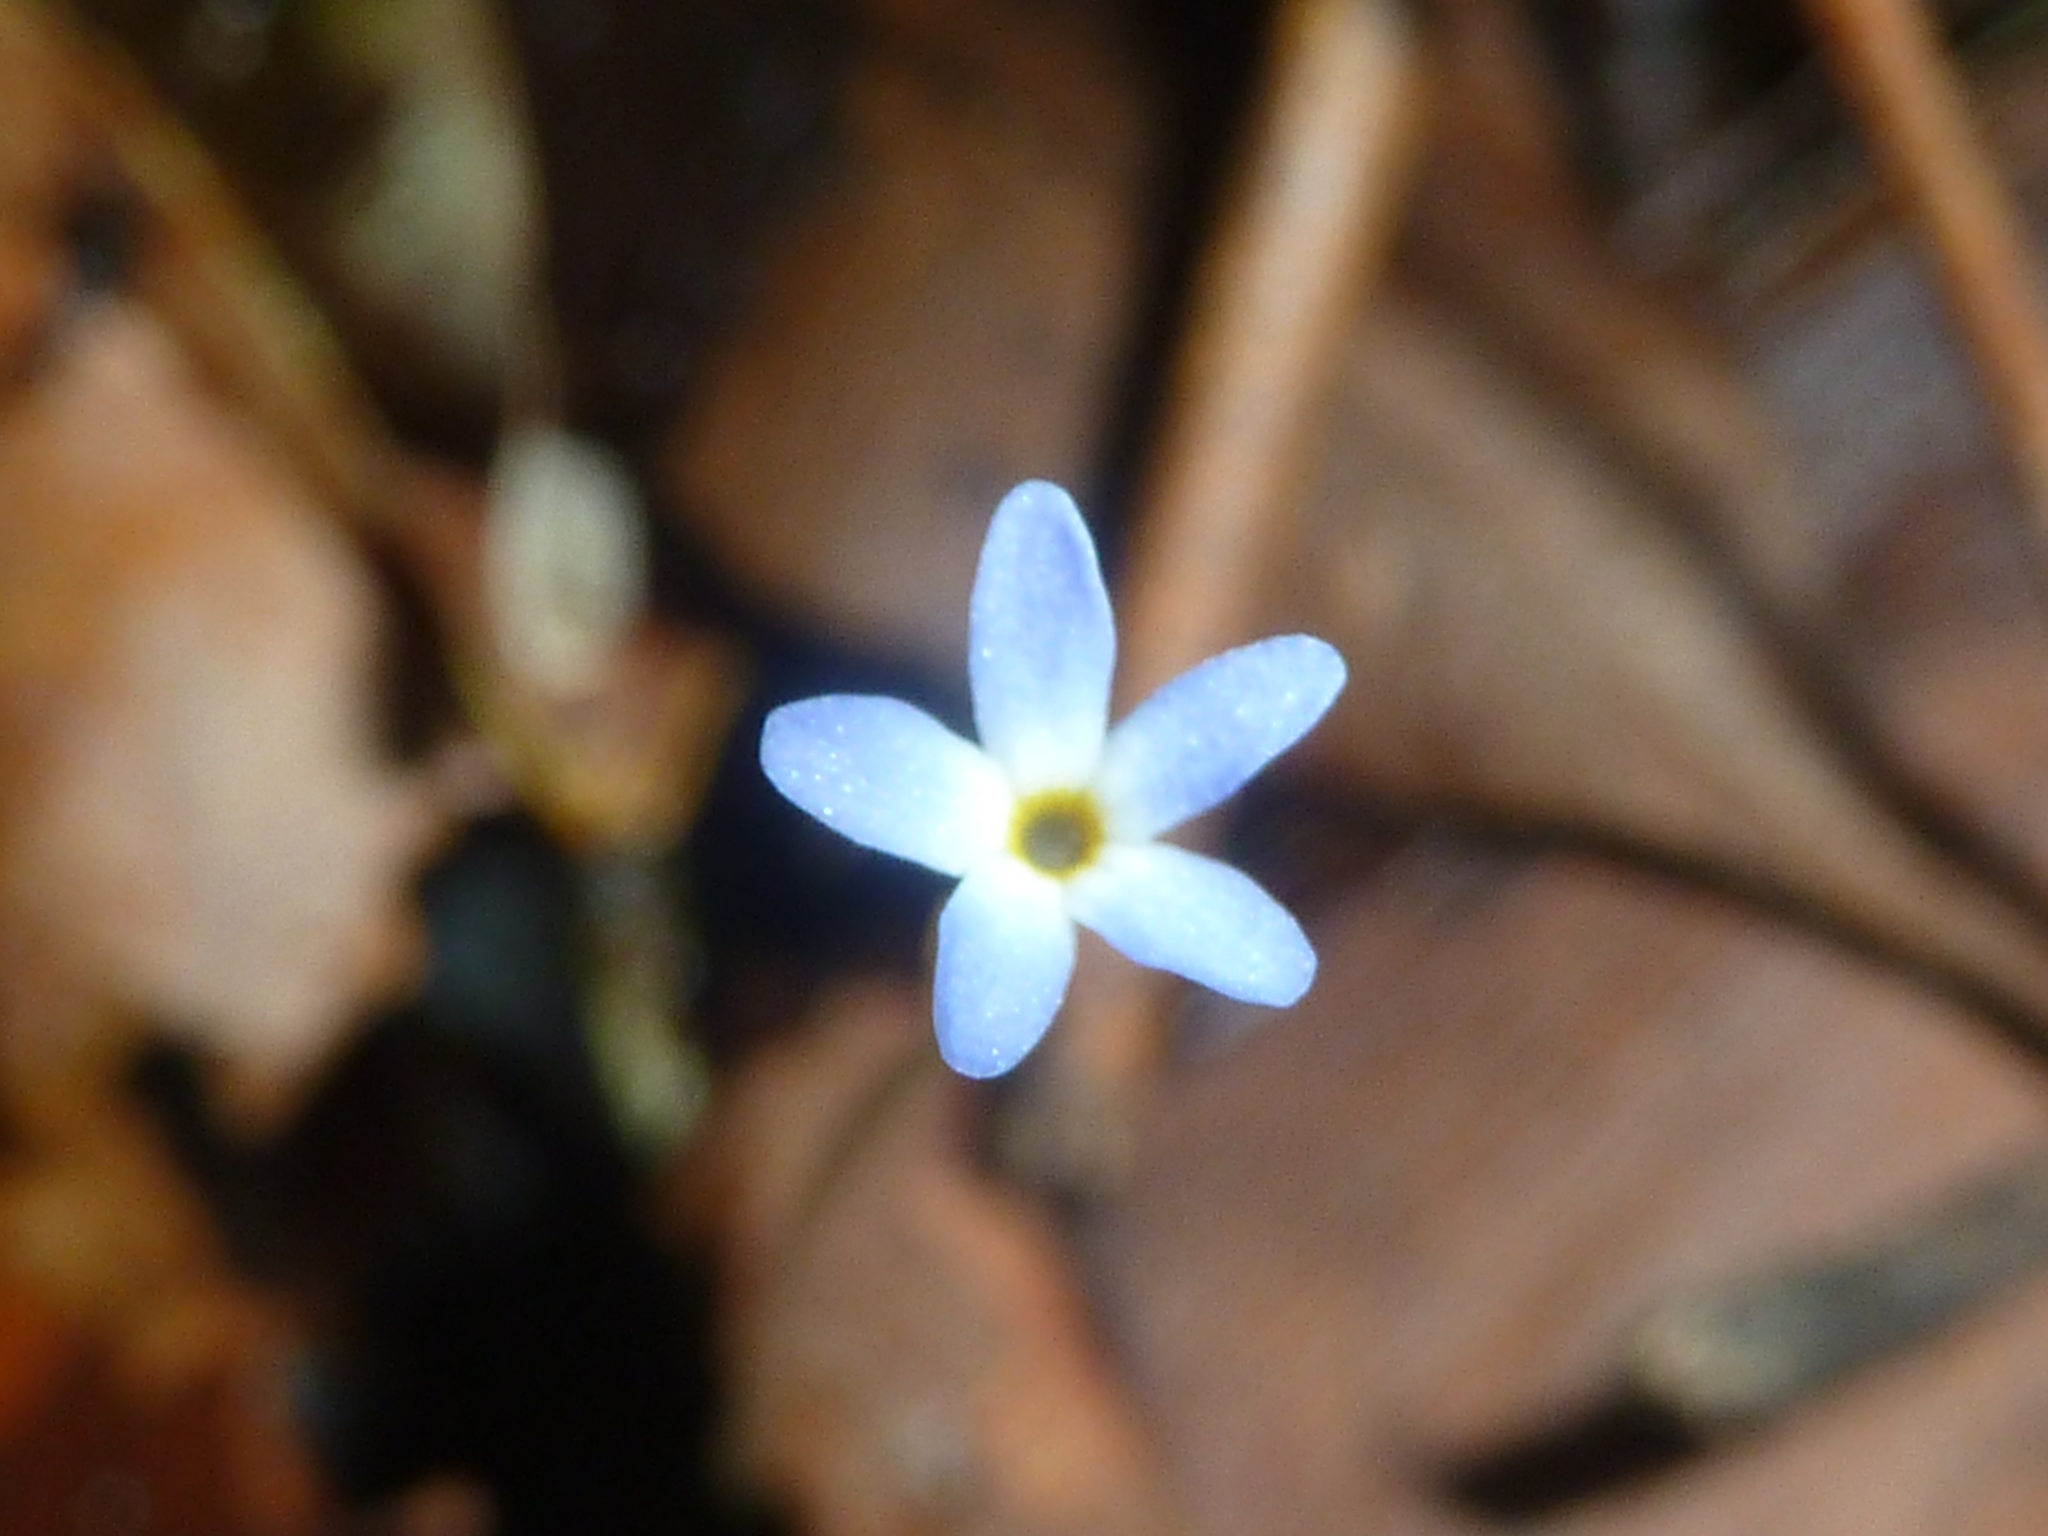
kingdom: Plantae
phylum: Tracheophyta
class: Magnoliopsida
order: Gentianales
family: Gentianaceae
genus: Voyria
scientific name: Voyria tenella
